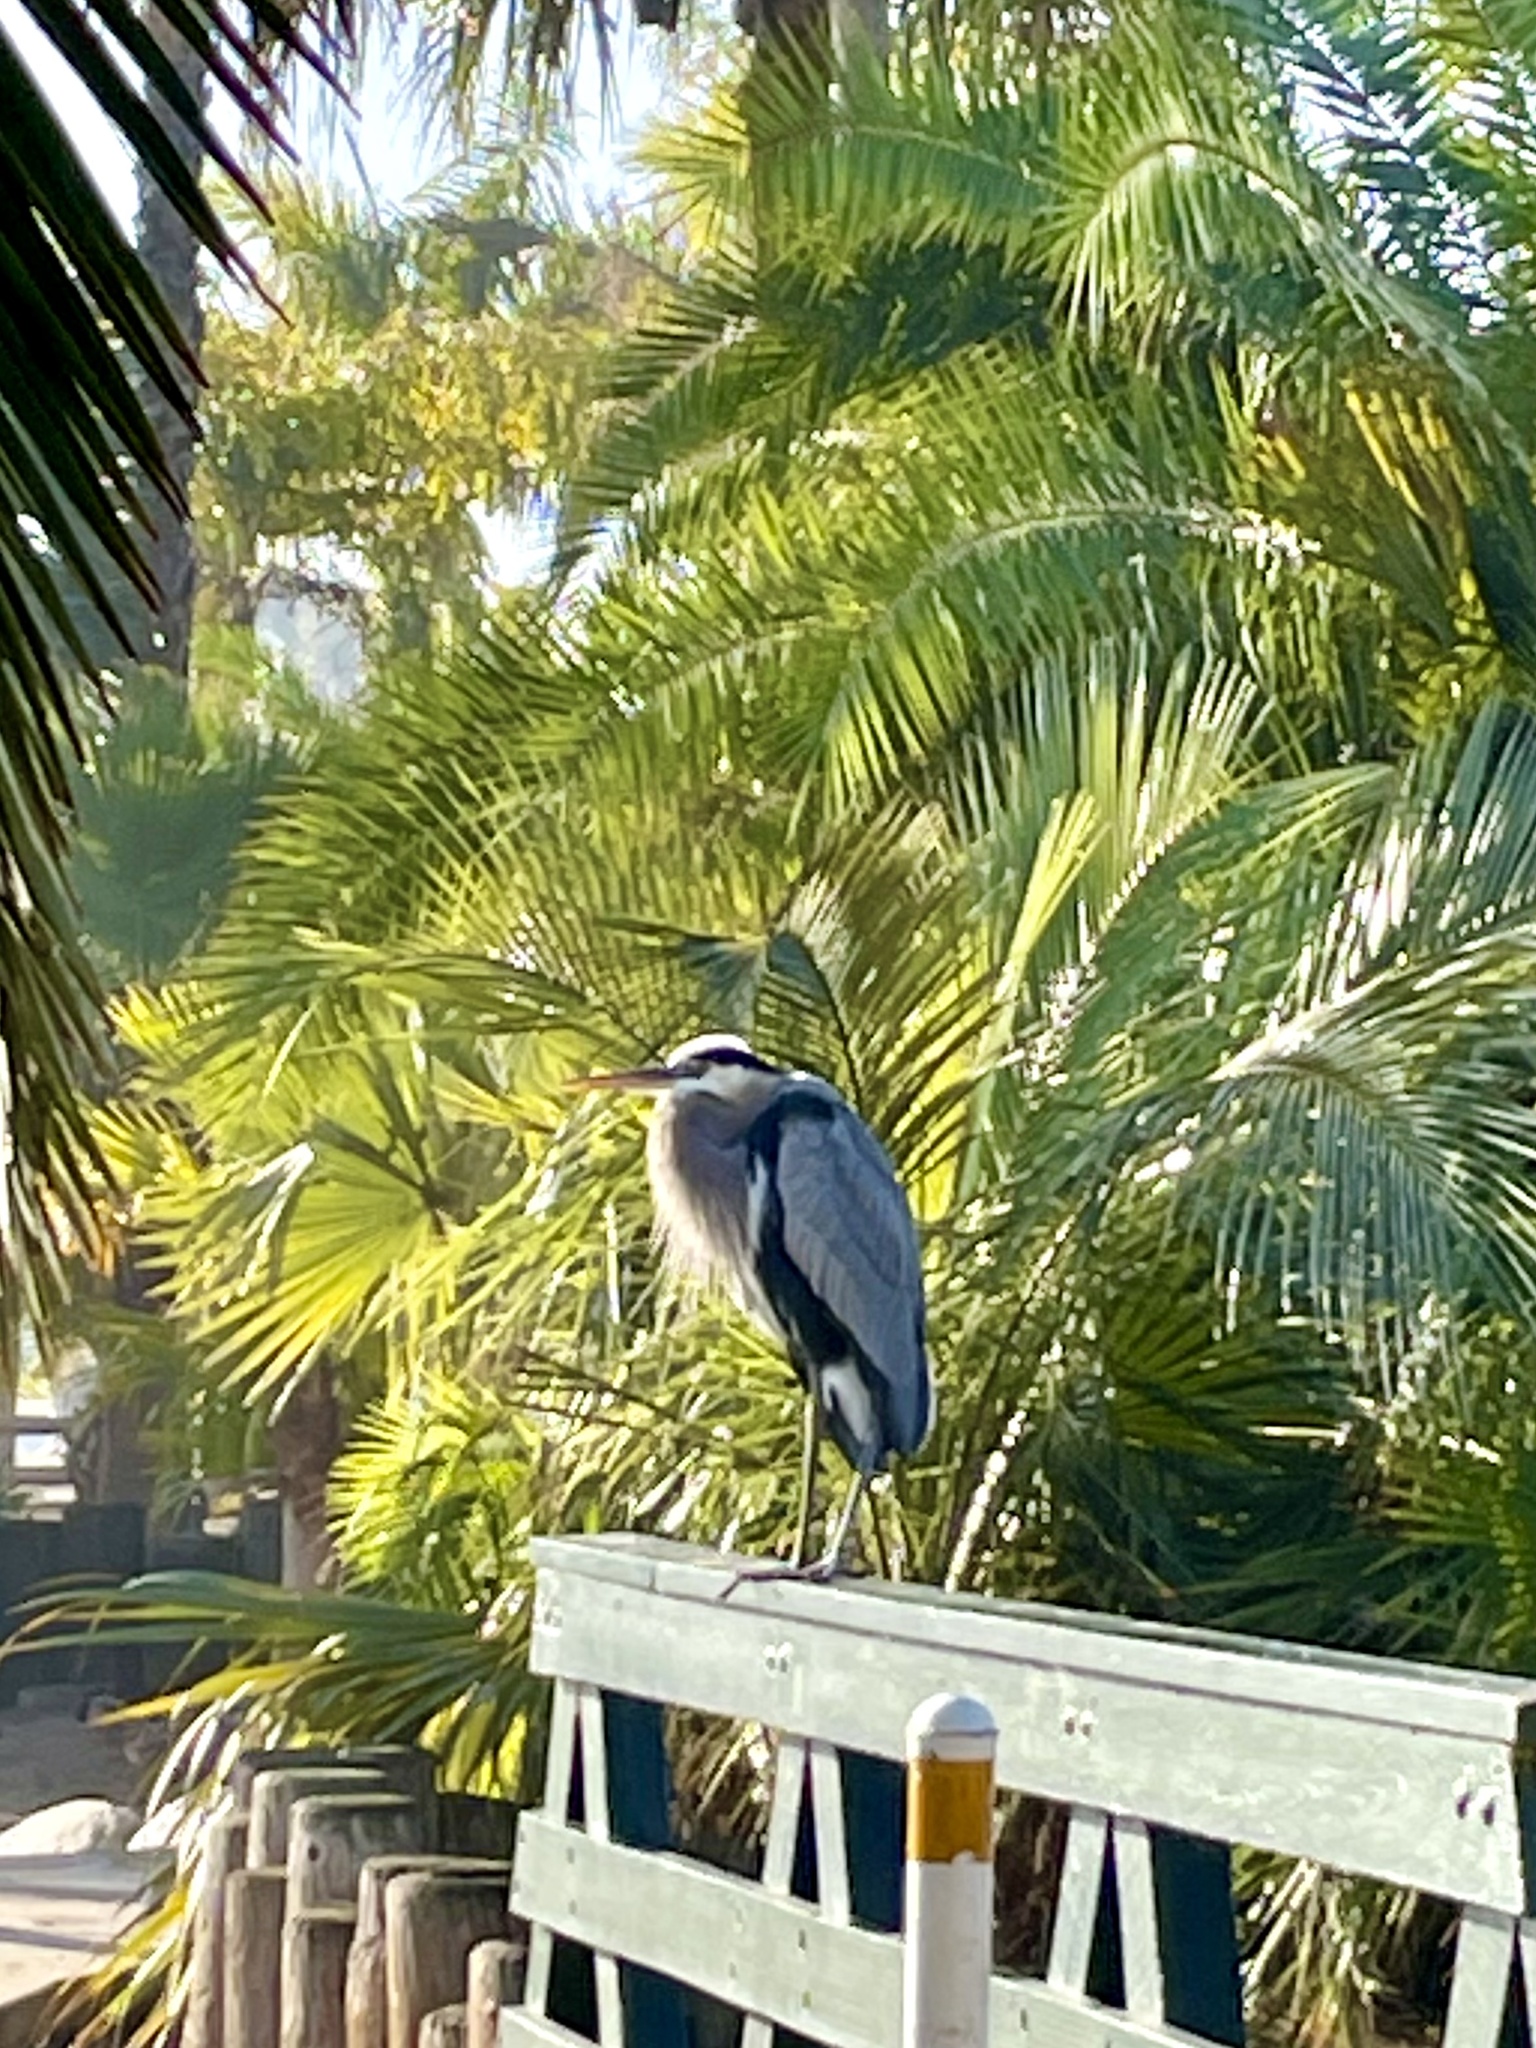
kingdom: Animalia
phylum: Chordata
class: Aves
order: Pelecaniformes
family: Ardeidae
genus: Ardea
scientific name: Ardea herodias
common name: Great blue heron
